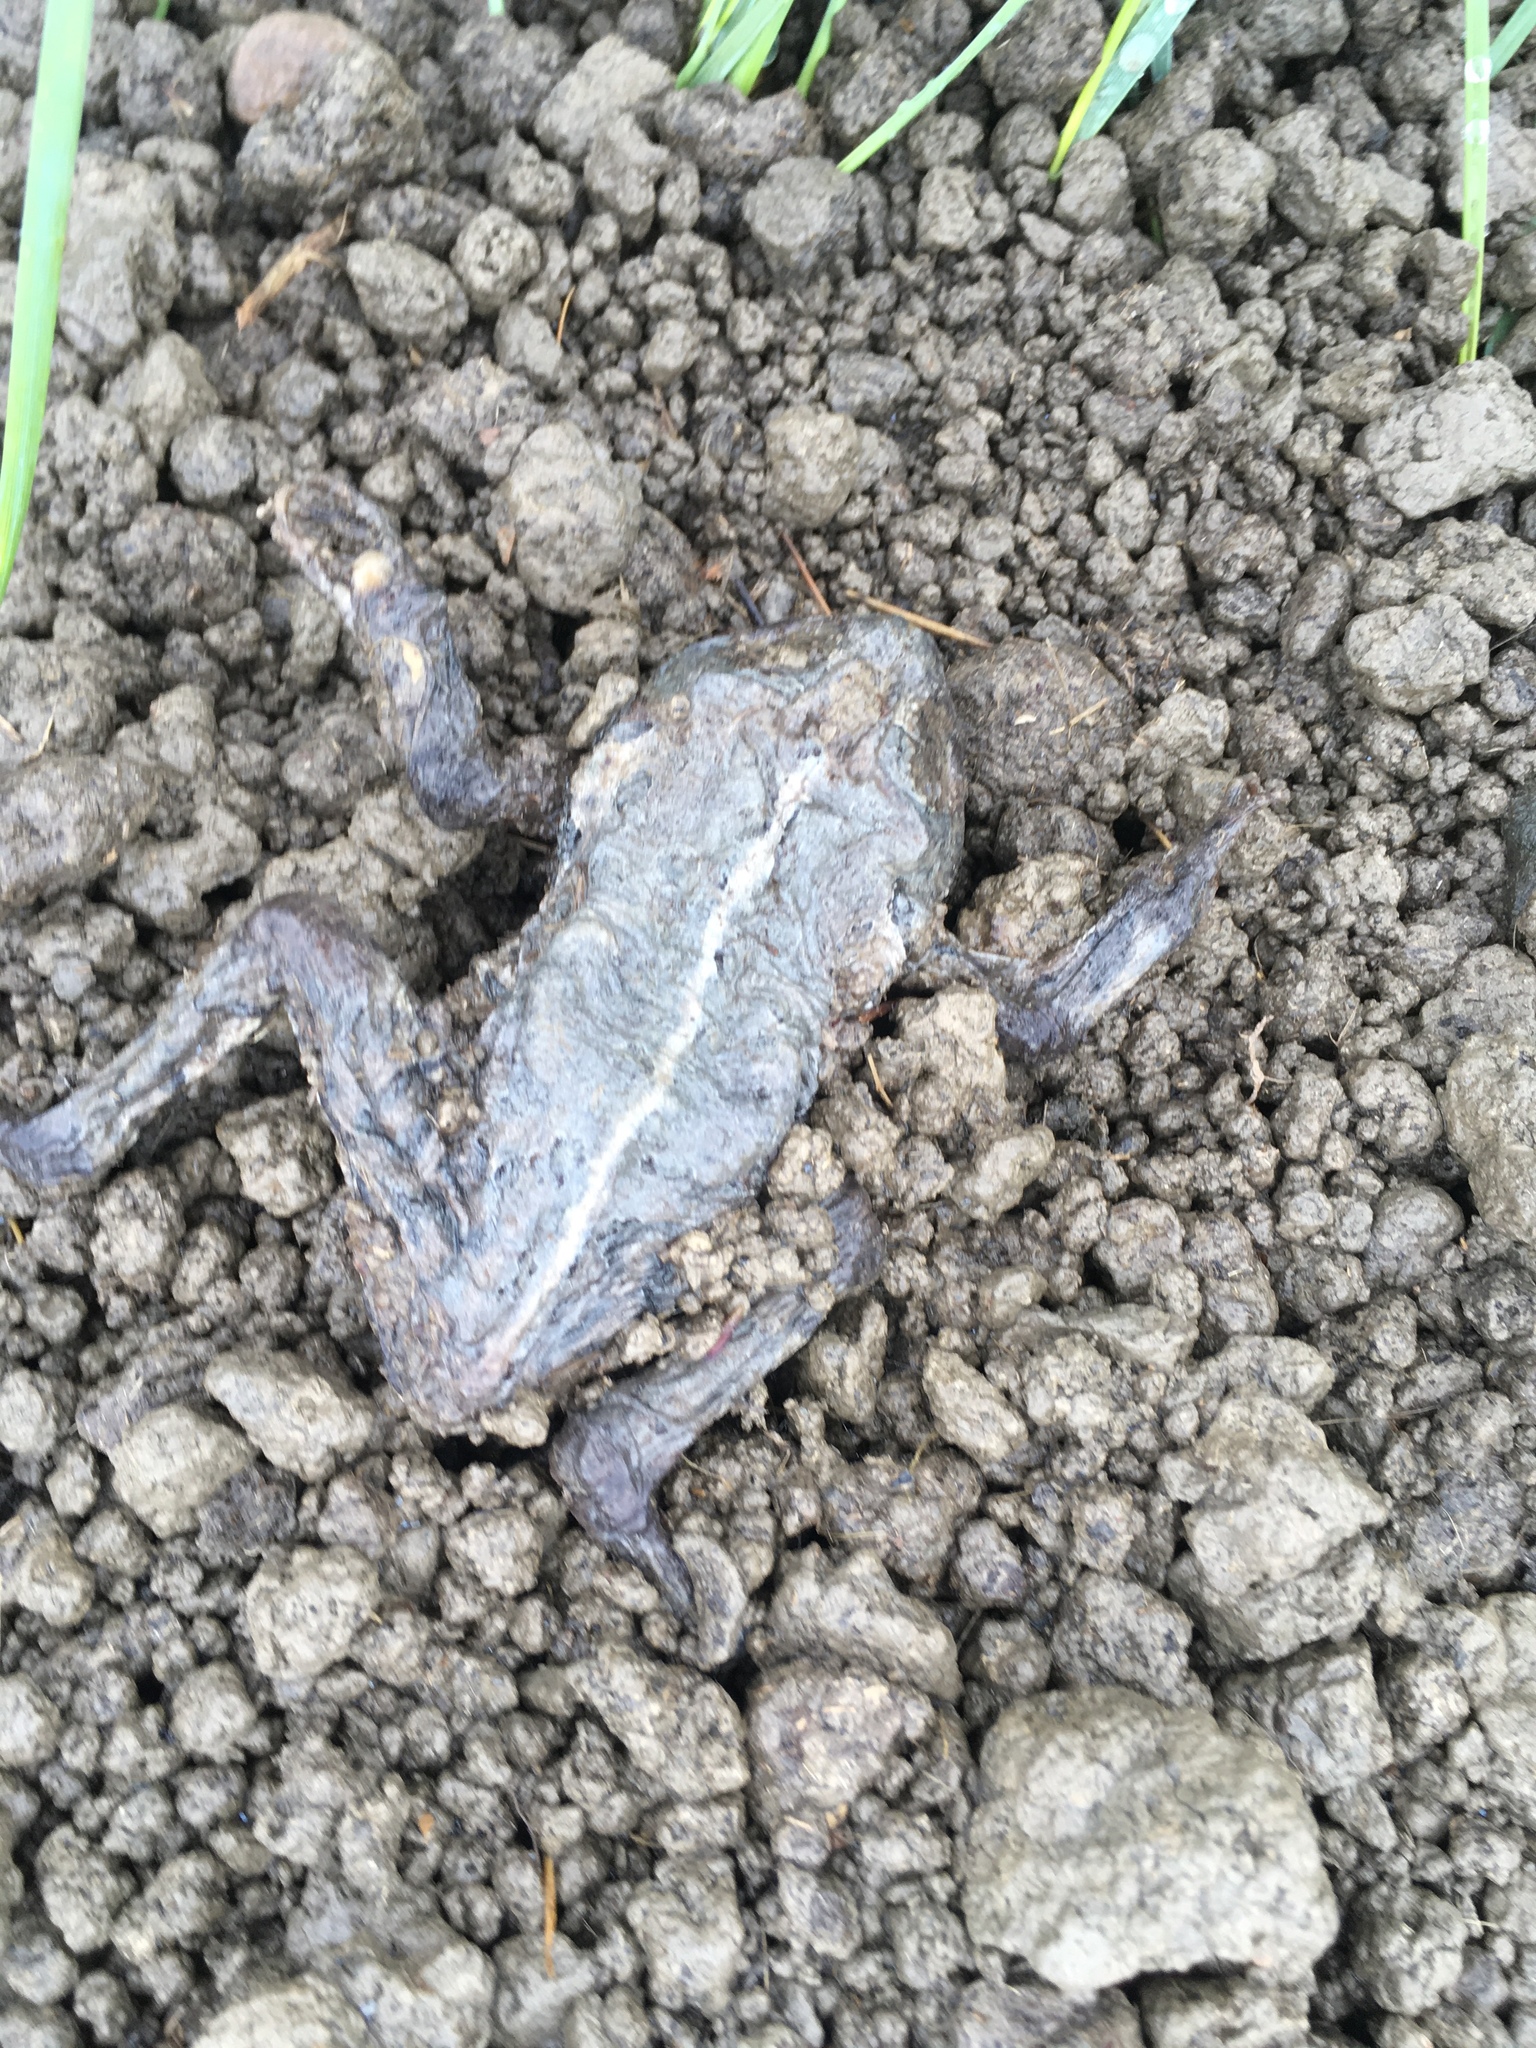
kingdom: Animalia
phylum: Chordata
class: Amphibia
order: Anura
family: Bufonidae
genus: Anaxyrus
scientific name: Anaxyrus woodhousii
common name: Woodhouse's toad
